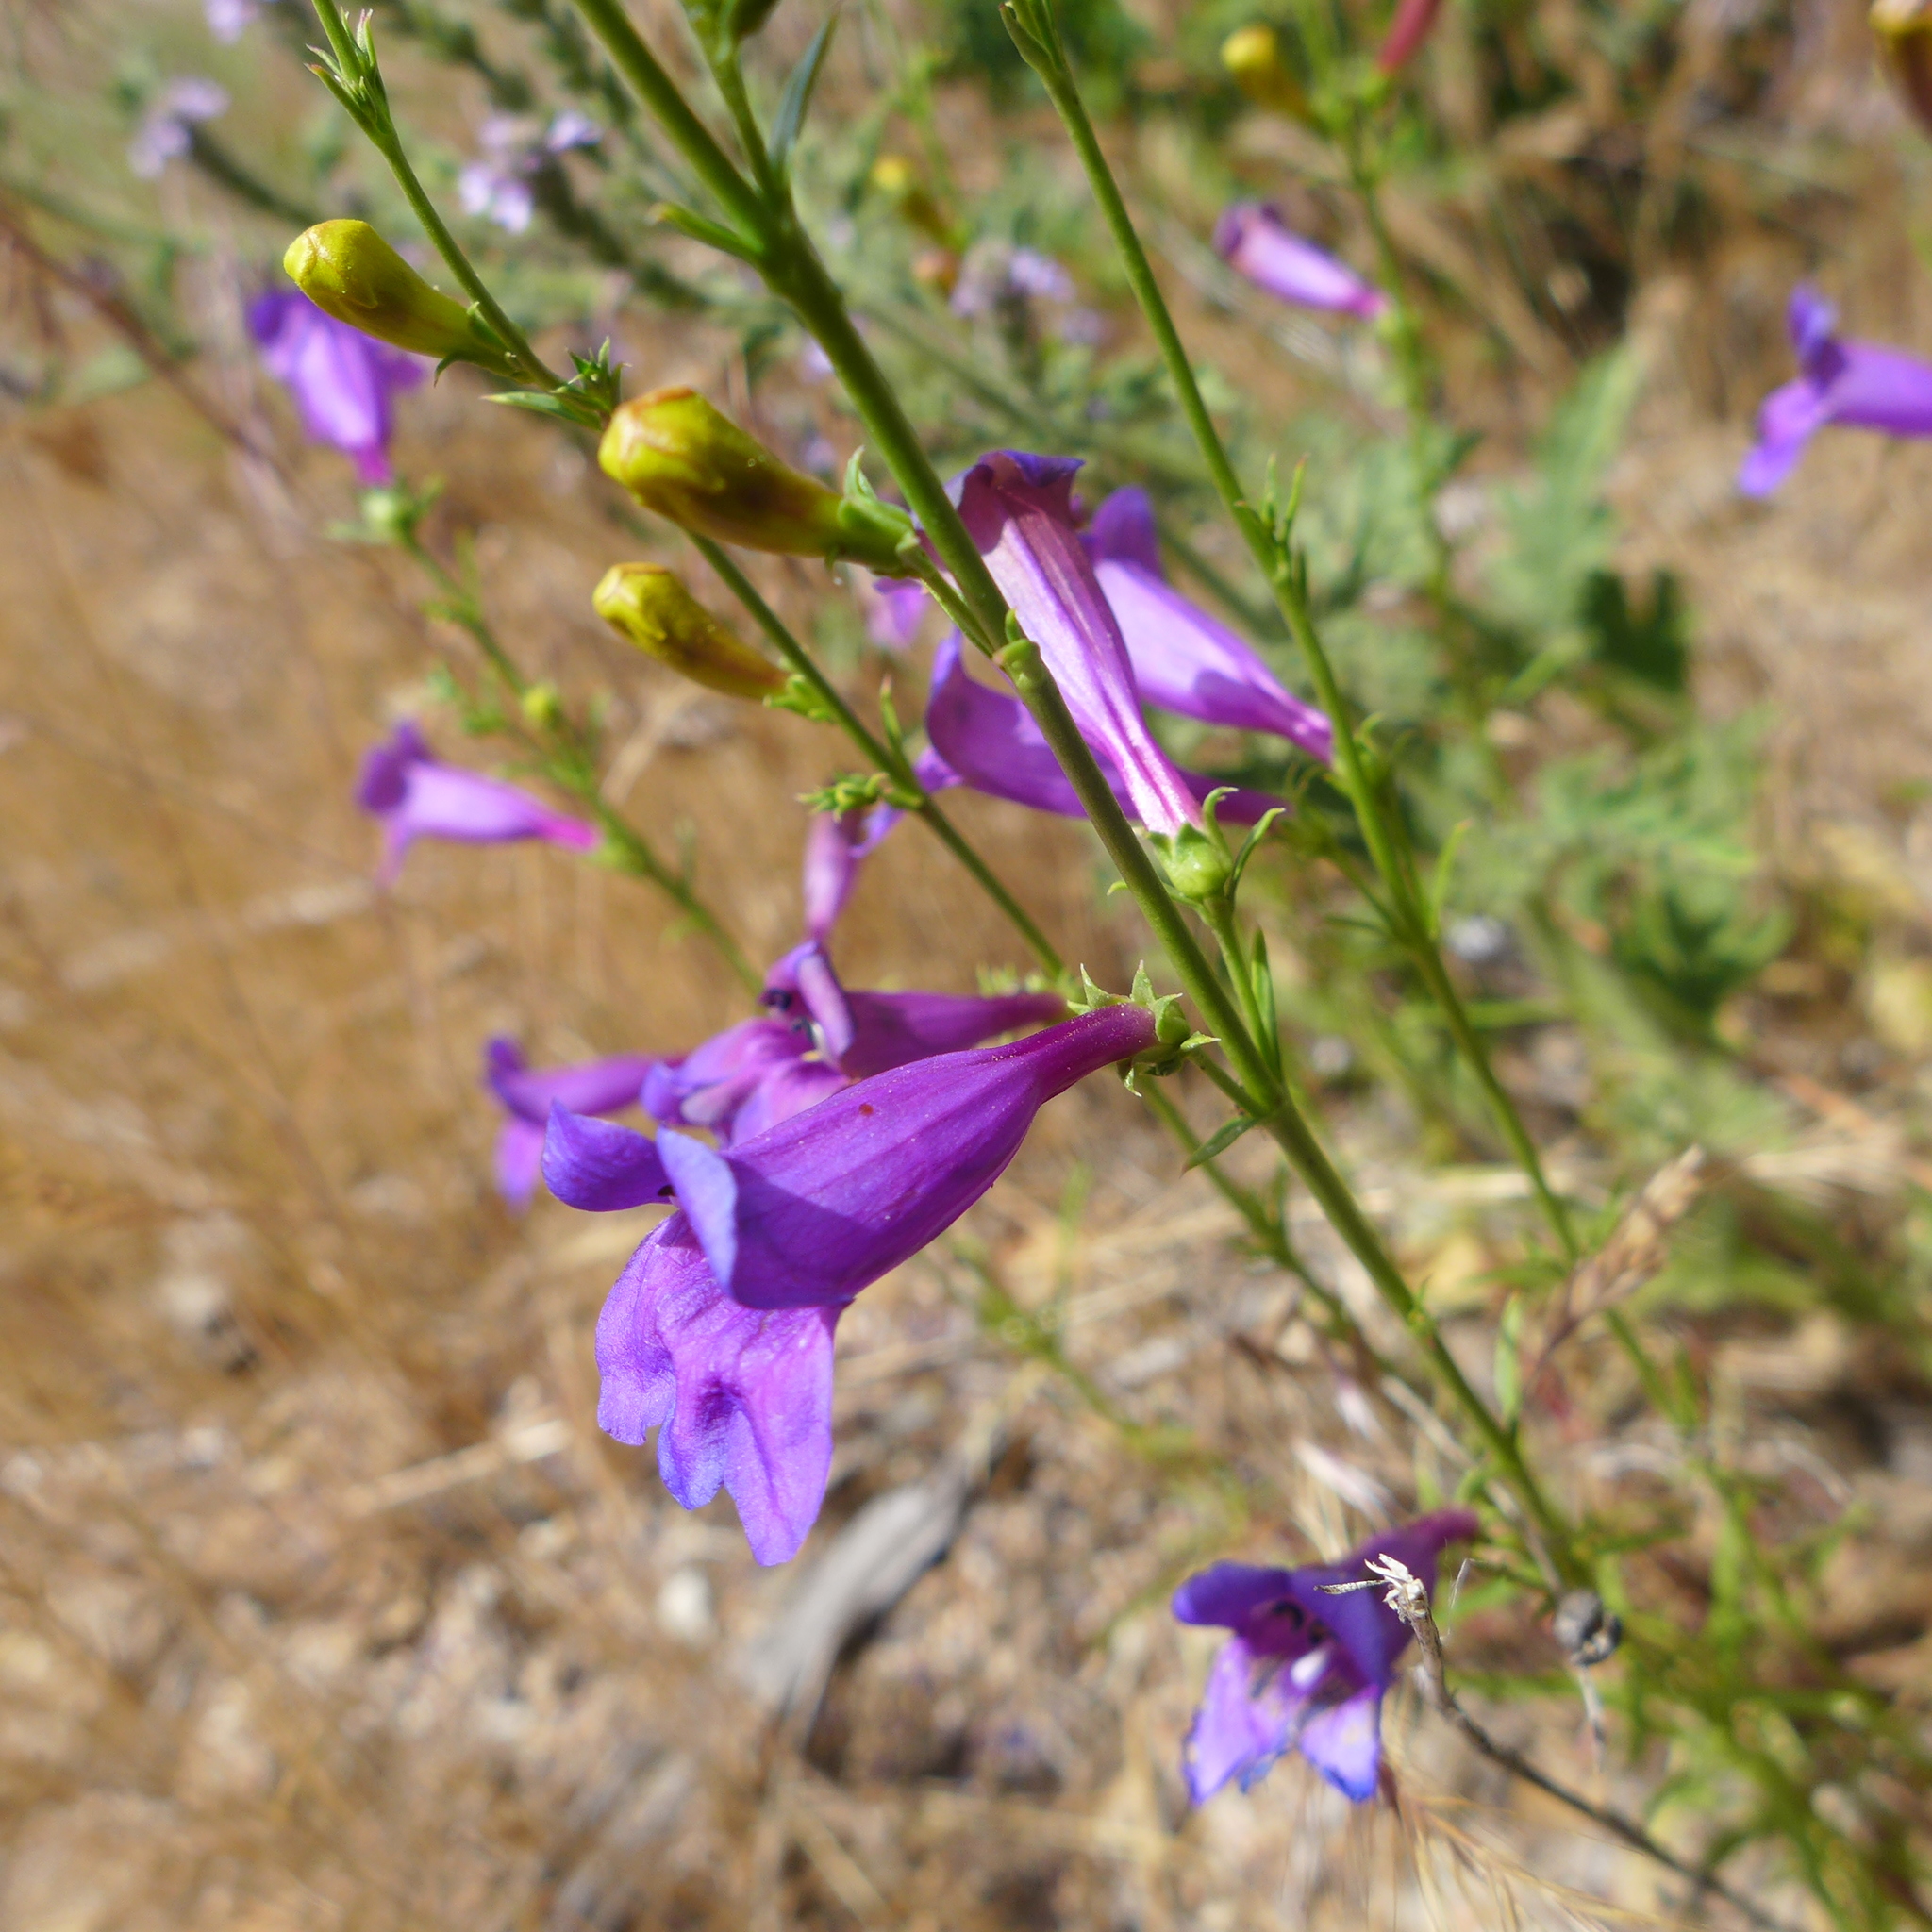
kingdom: Plantae
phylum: Tracheophyta
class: Magnoliopsida
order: Lamiales
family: Plantaginaceae
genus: Penstemon
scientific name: Penstemon heterophyllus
